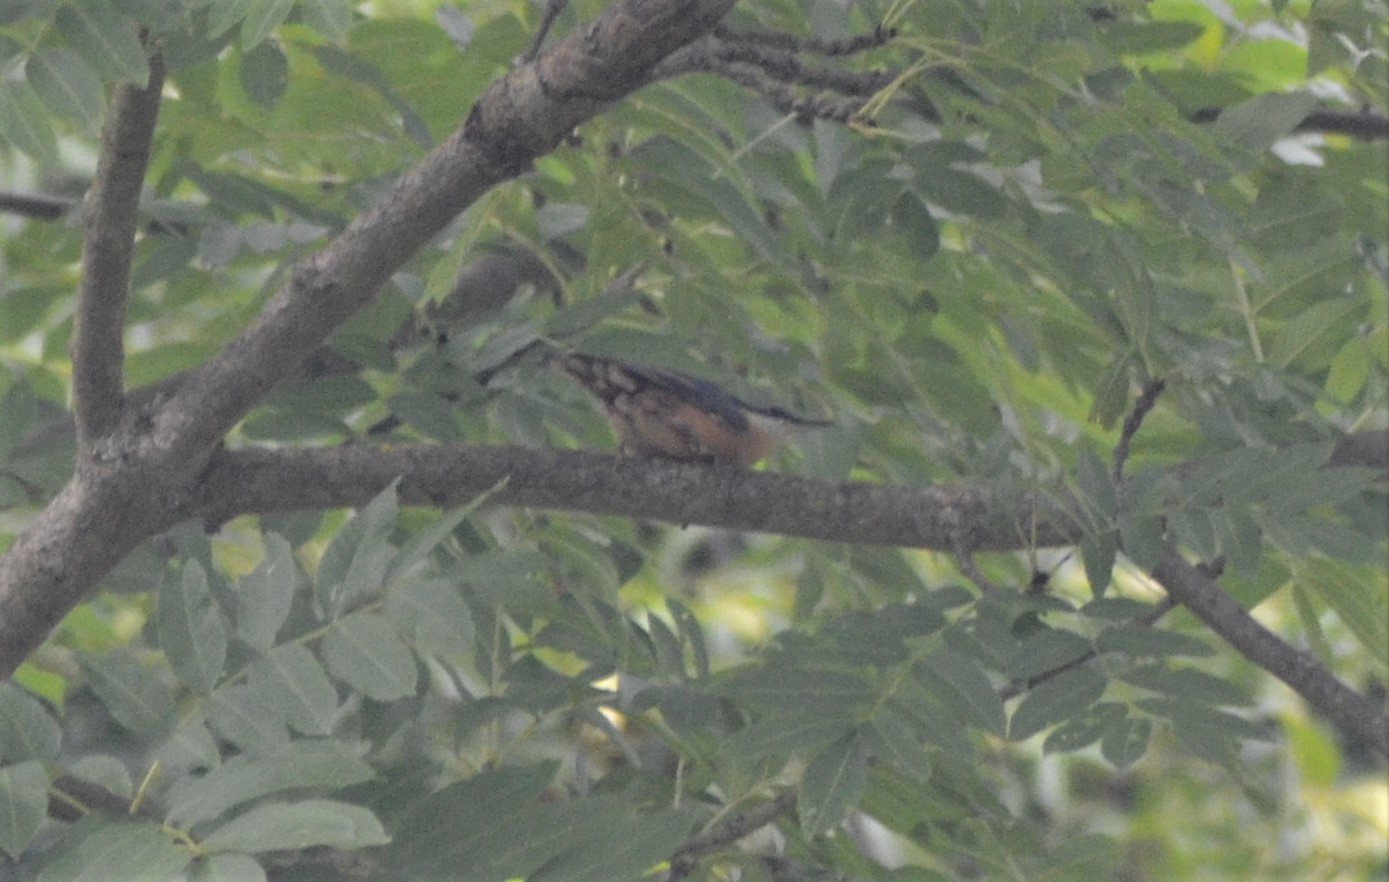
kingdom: Animalia
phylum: Chordata
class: Aves
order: Passeriformes
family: Sittidae
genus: Sitta
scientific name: Sitta europaea
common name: Eurasian nuthatch
